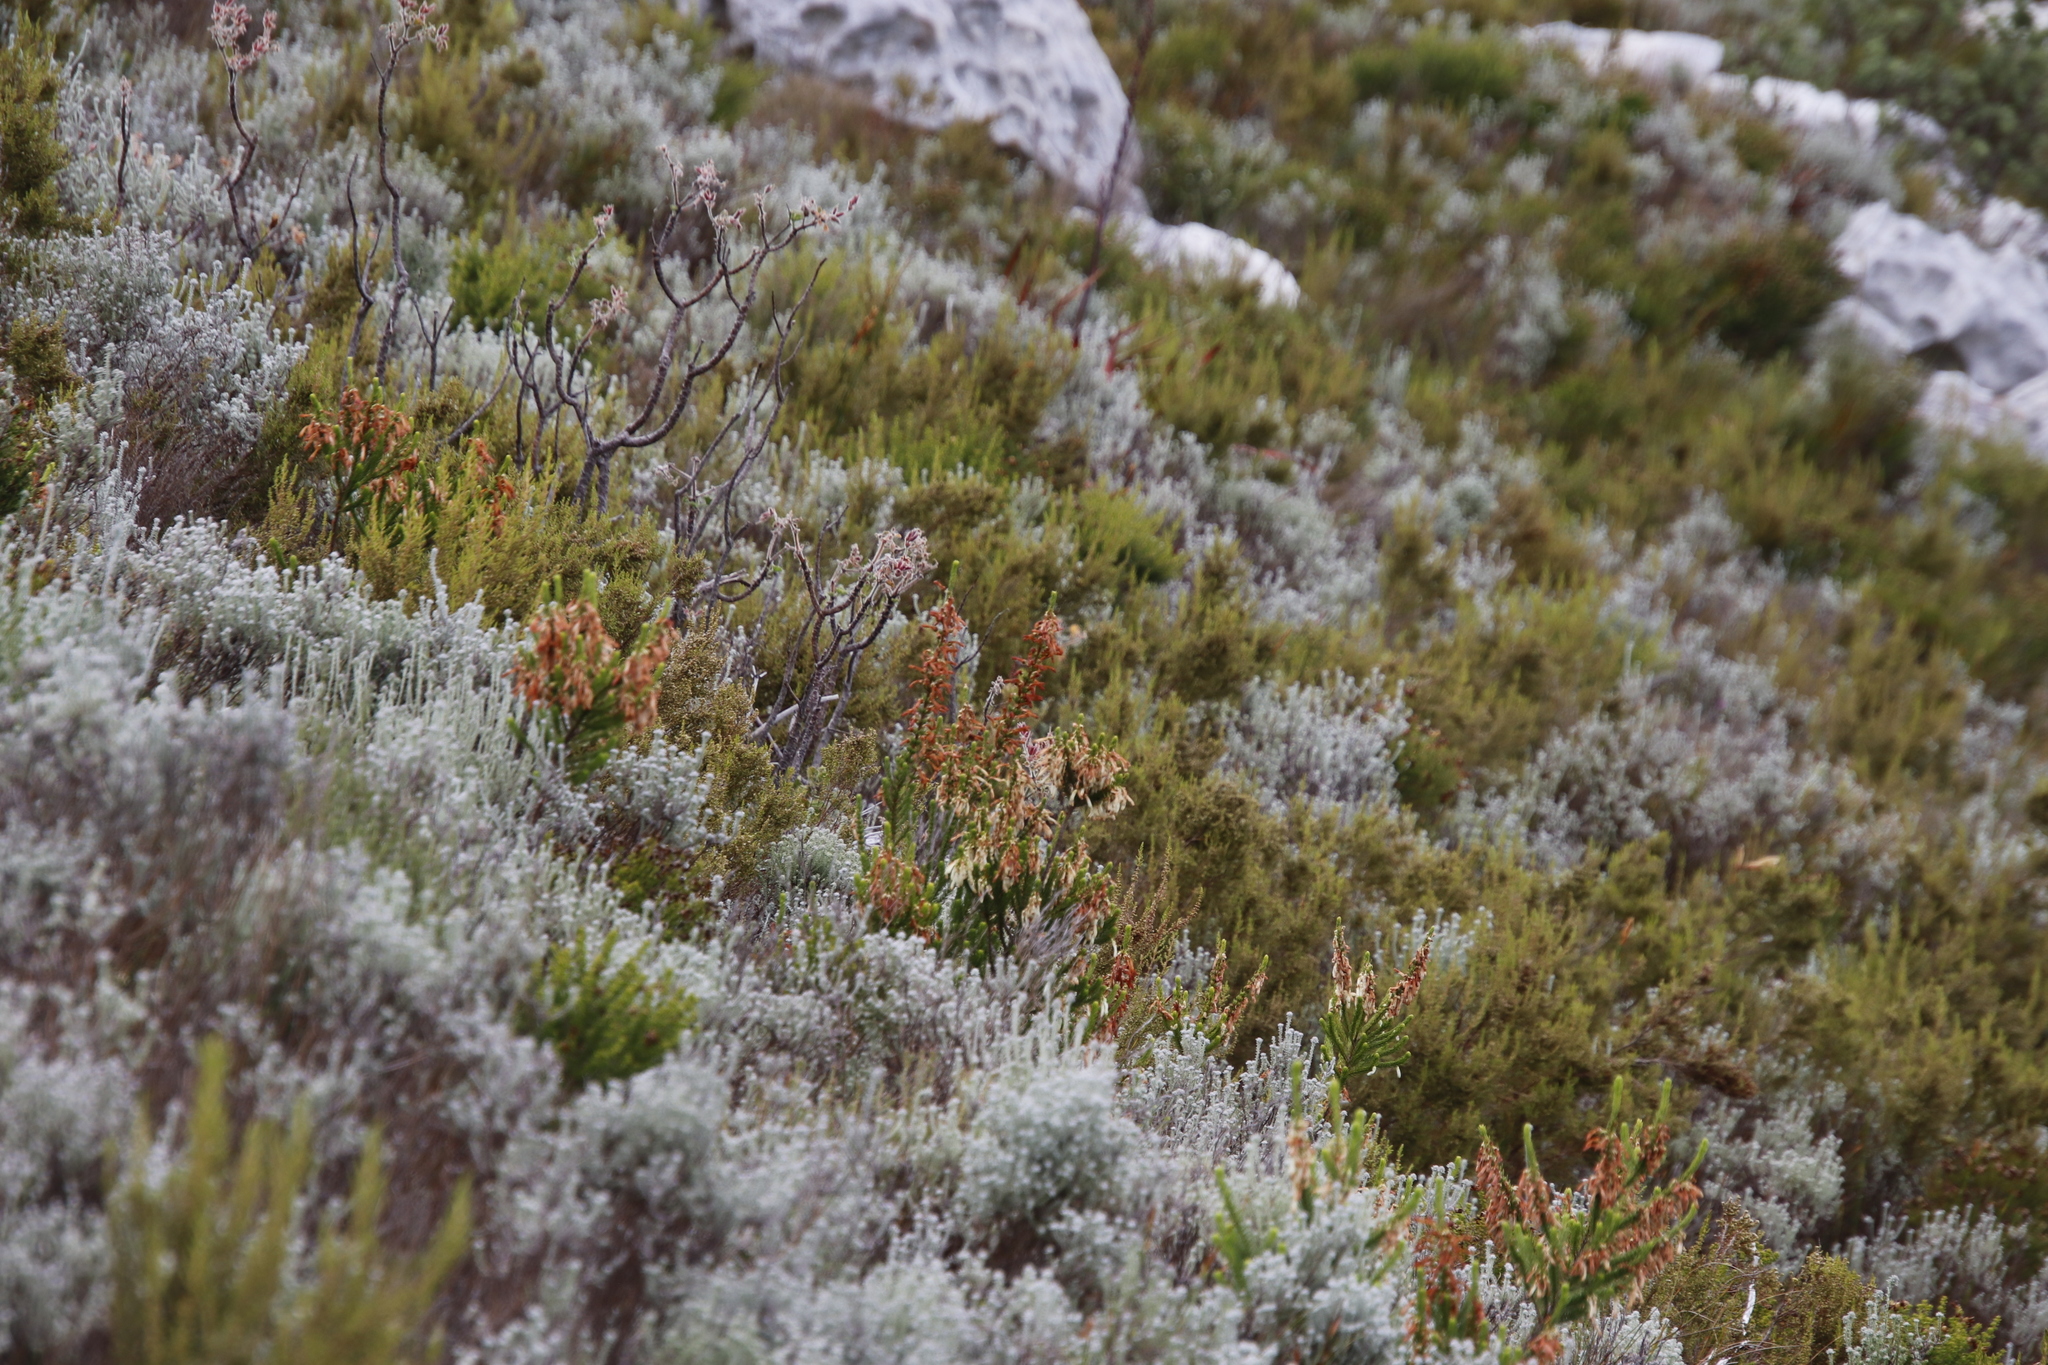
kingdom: Plantae
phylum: Tracheophyta
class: Magnoliopsida
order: Ericales
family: Ericaceae
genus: Erica
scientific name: Erica mammosa
